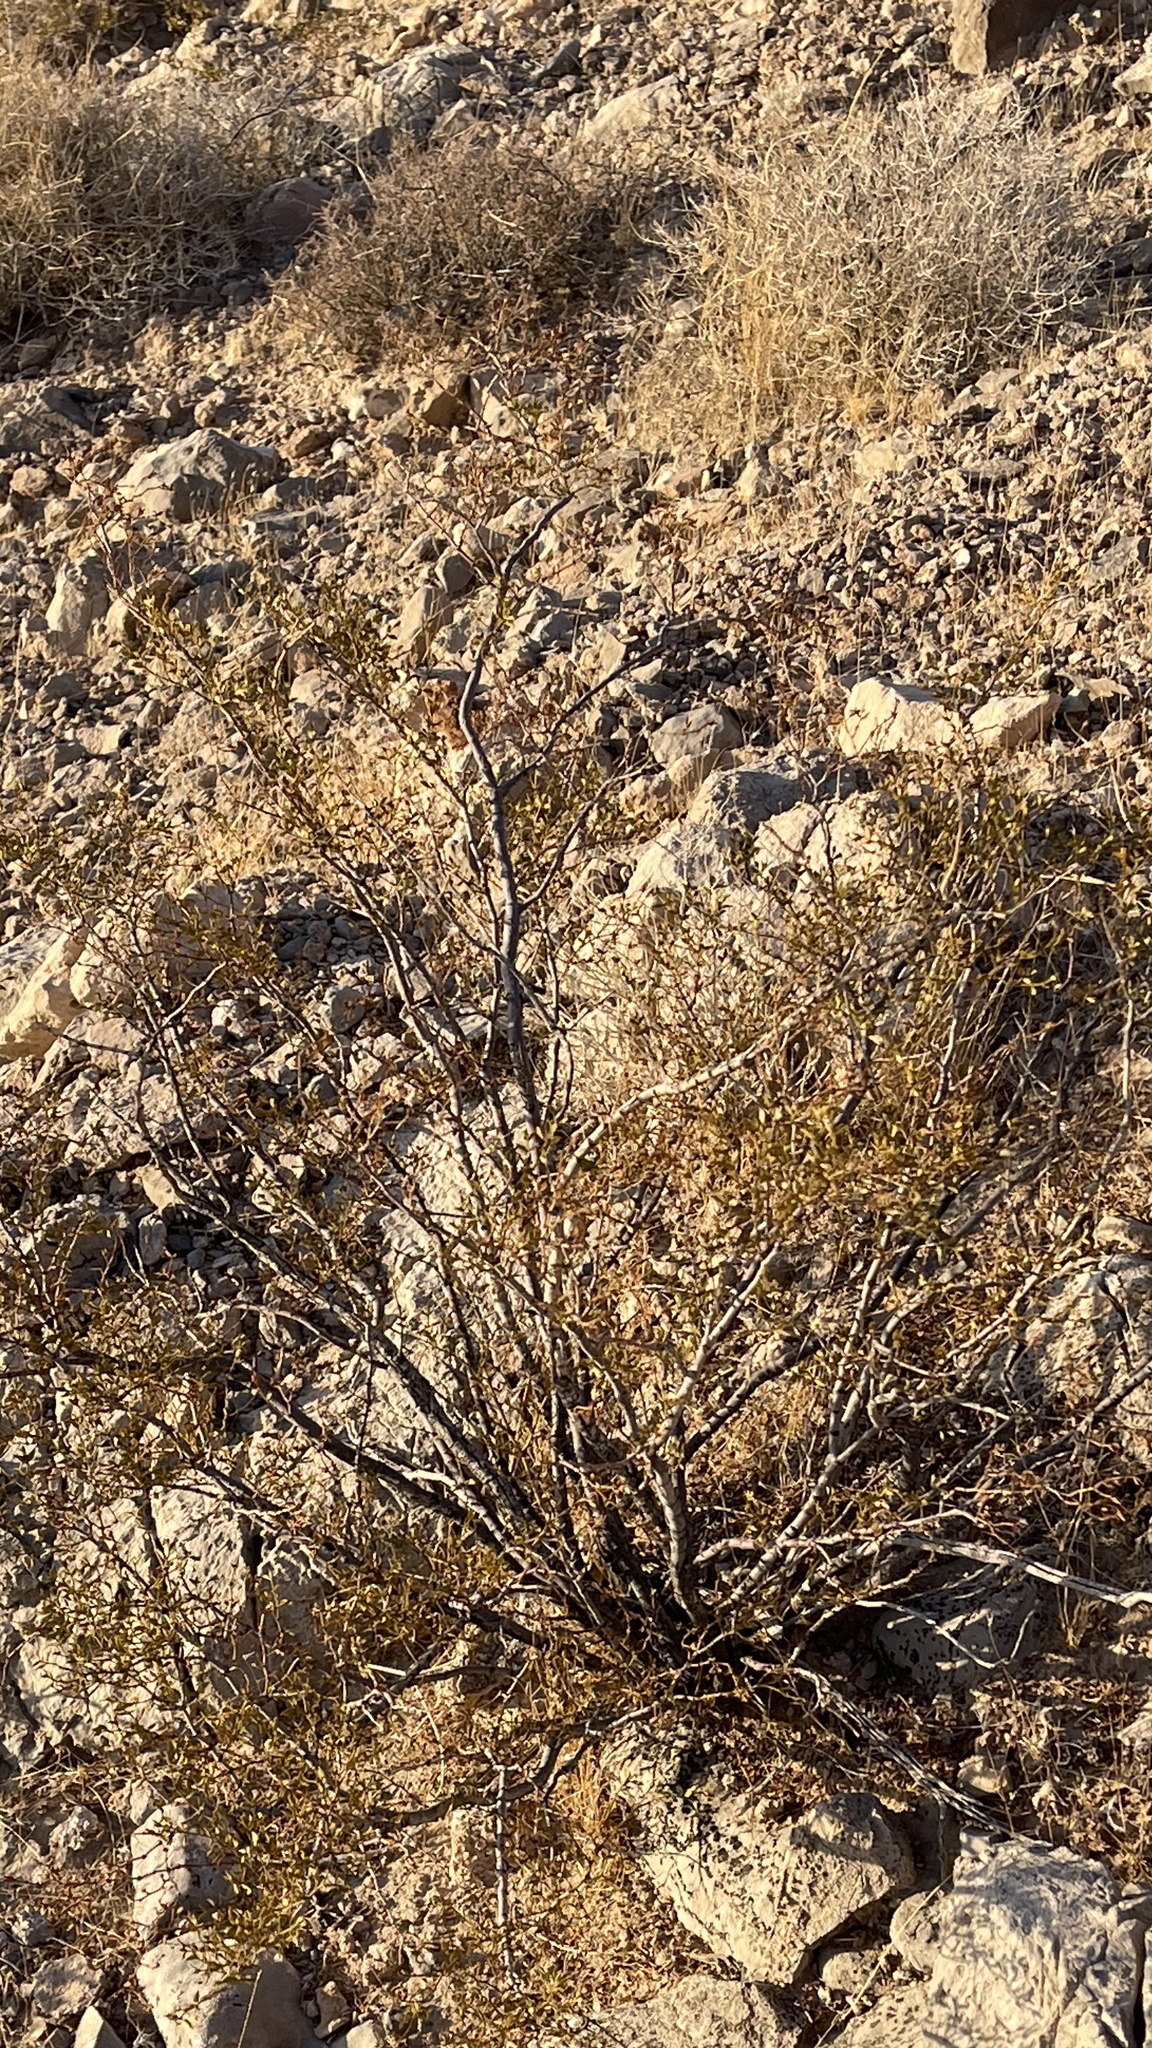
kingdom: Plantae
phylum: Tracheophyta
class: Magnoliopsida
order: Zygophyllales
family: Zygophyllaceae
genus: Larrea
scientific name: Larrea tridentata
